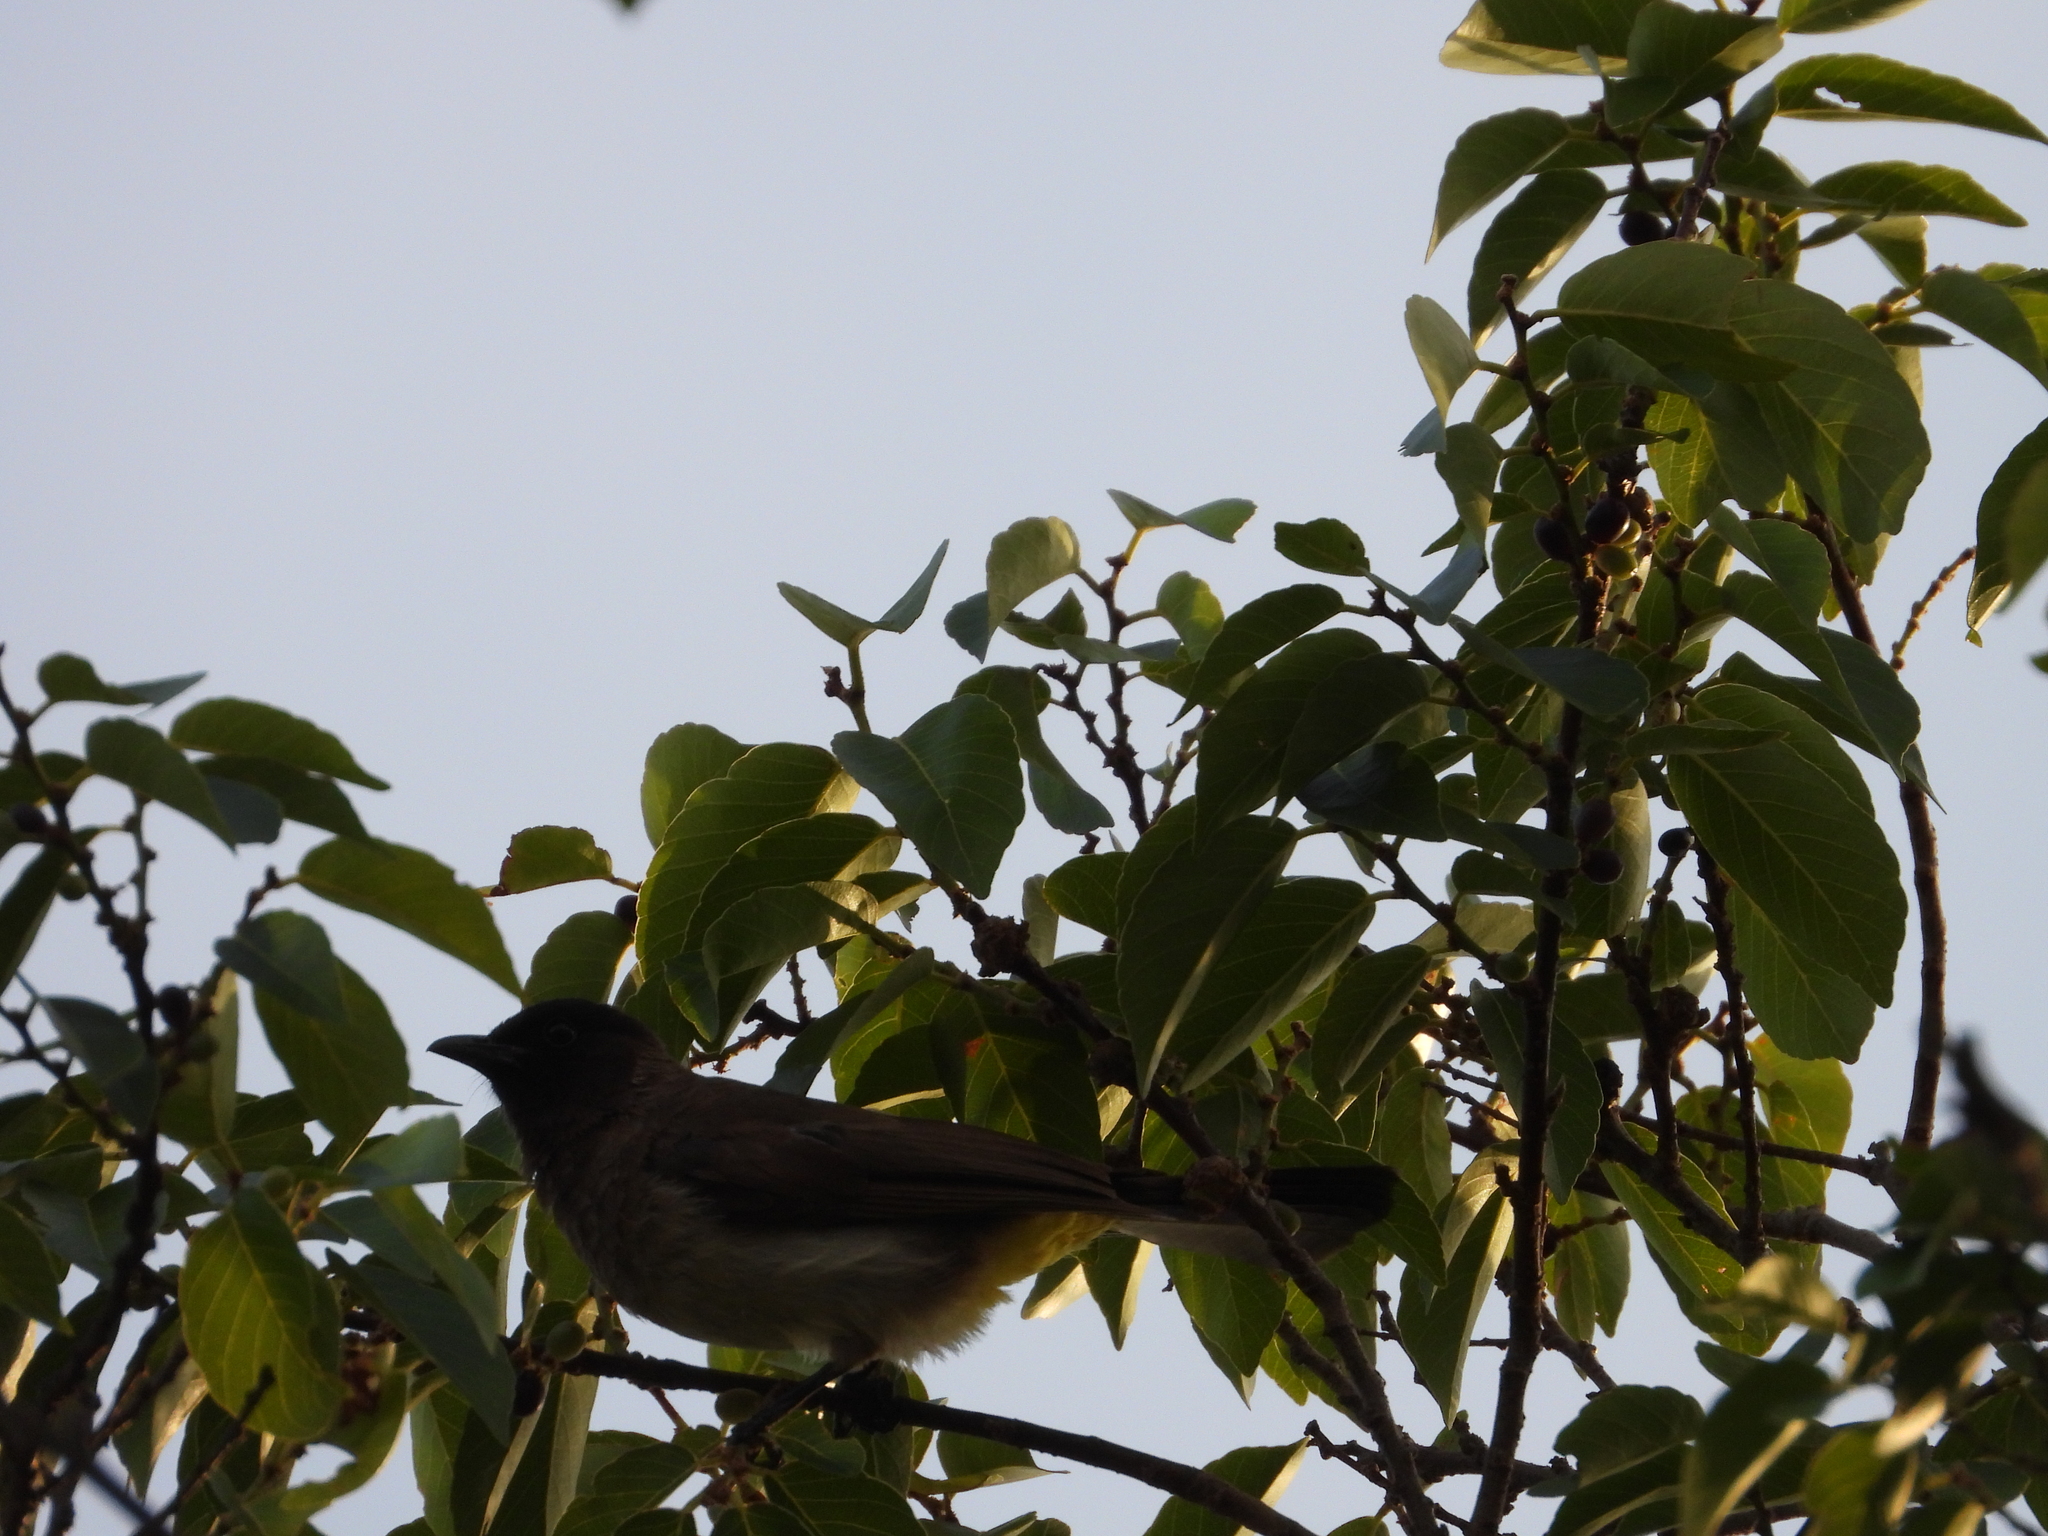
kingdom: Animalia
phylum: Chordata
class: Aves
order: Passeriformes
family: Pycnonotidae
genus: Pycnonotus
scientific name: Pycnonotus barbatus
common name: Common bulbul
